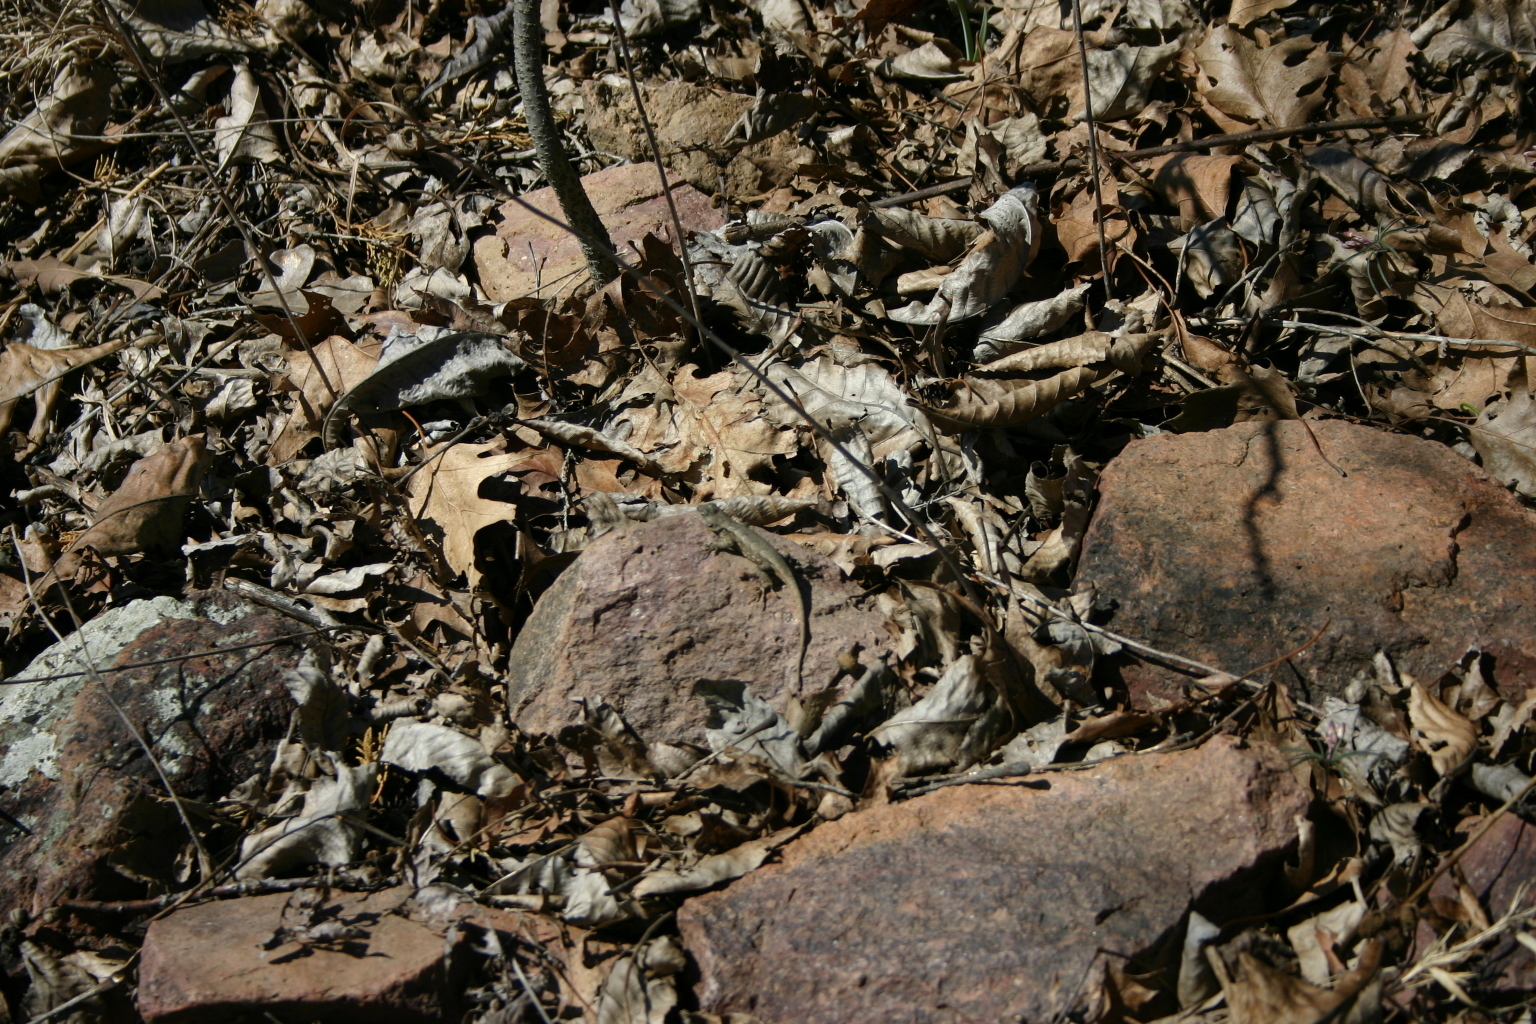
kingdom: Animalia
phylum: Chordata
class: Squamata
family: Phrynosomatidae
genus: Sceloporus
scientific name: Sceloporus consobrinus
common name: Southern prairie lizard
